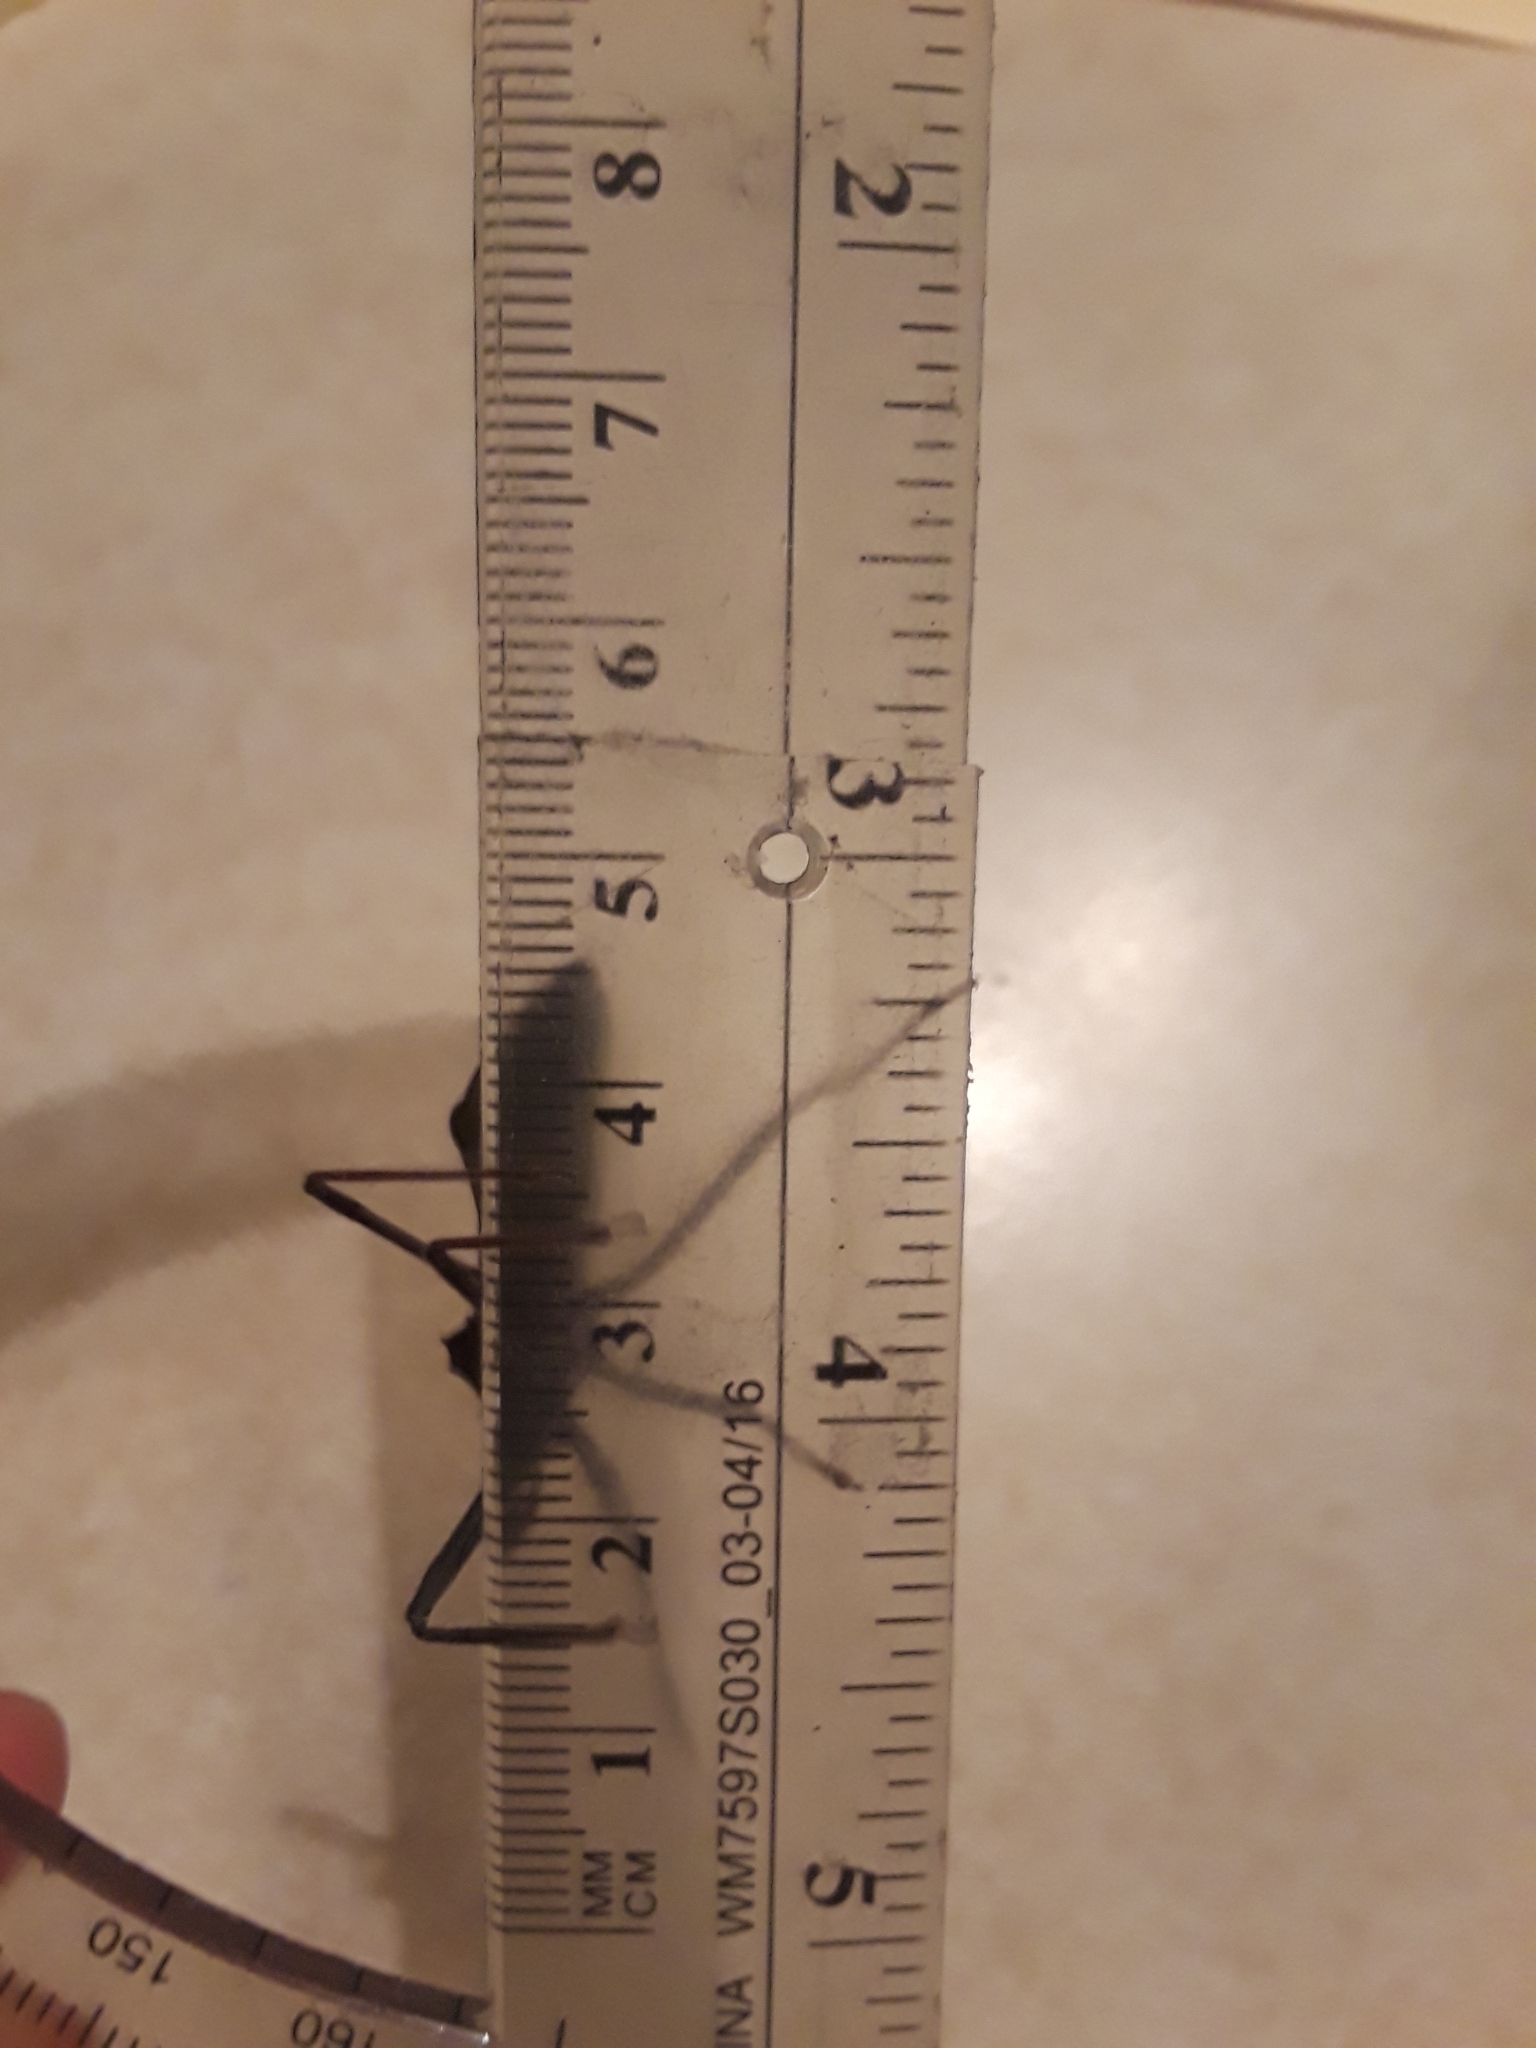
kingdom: Animalia
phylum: Arthropoda
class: Insecta
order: Hemiptera
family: Reduviidae
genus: Arilus
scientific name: Arilus cristatus
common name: North american wheel bug
